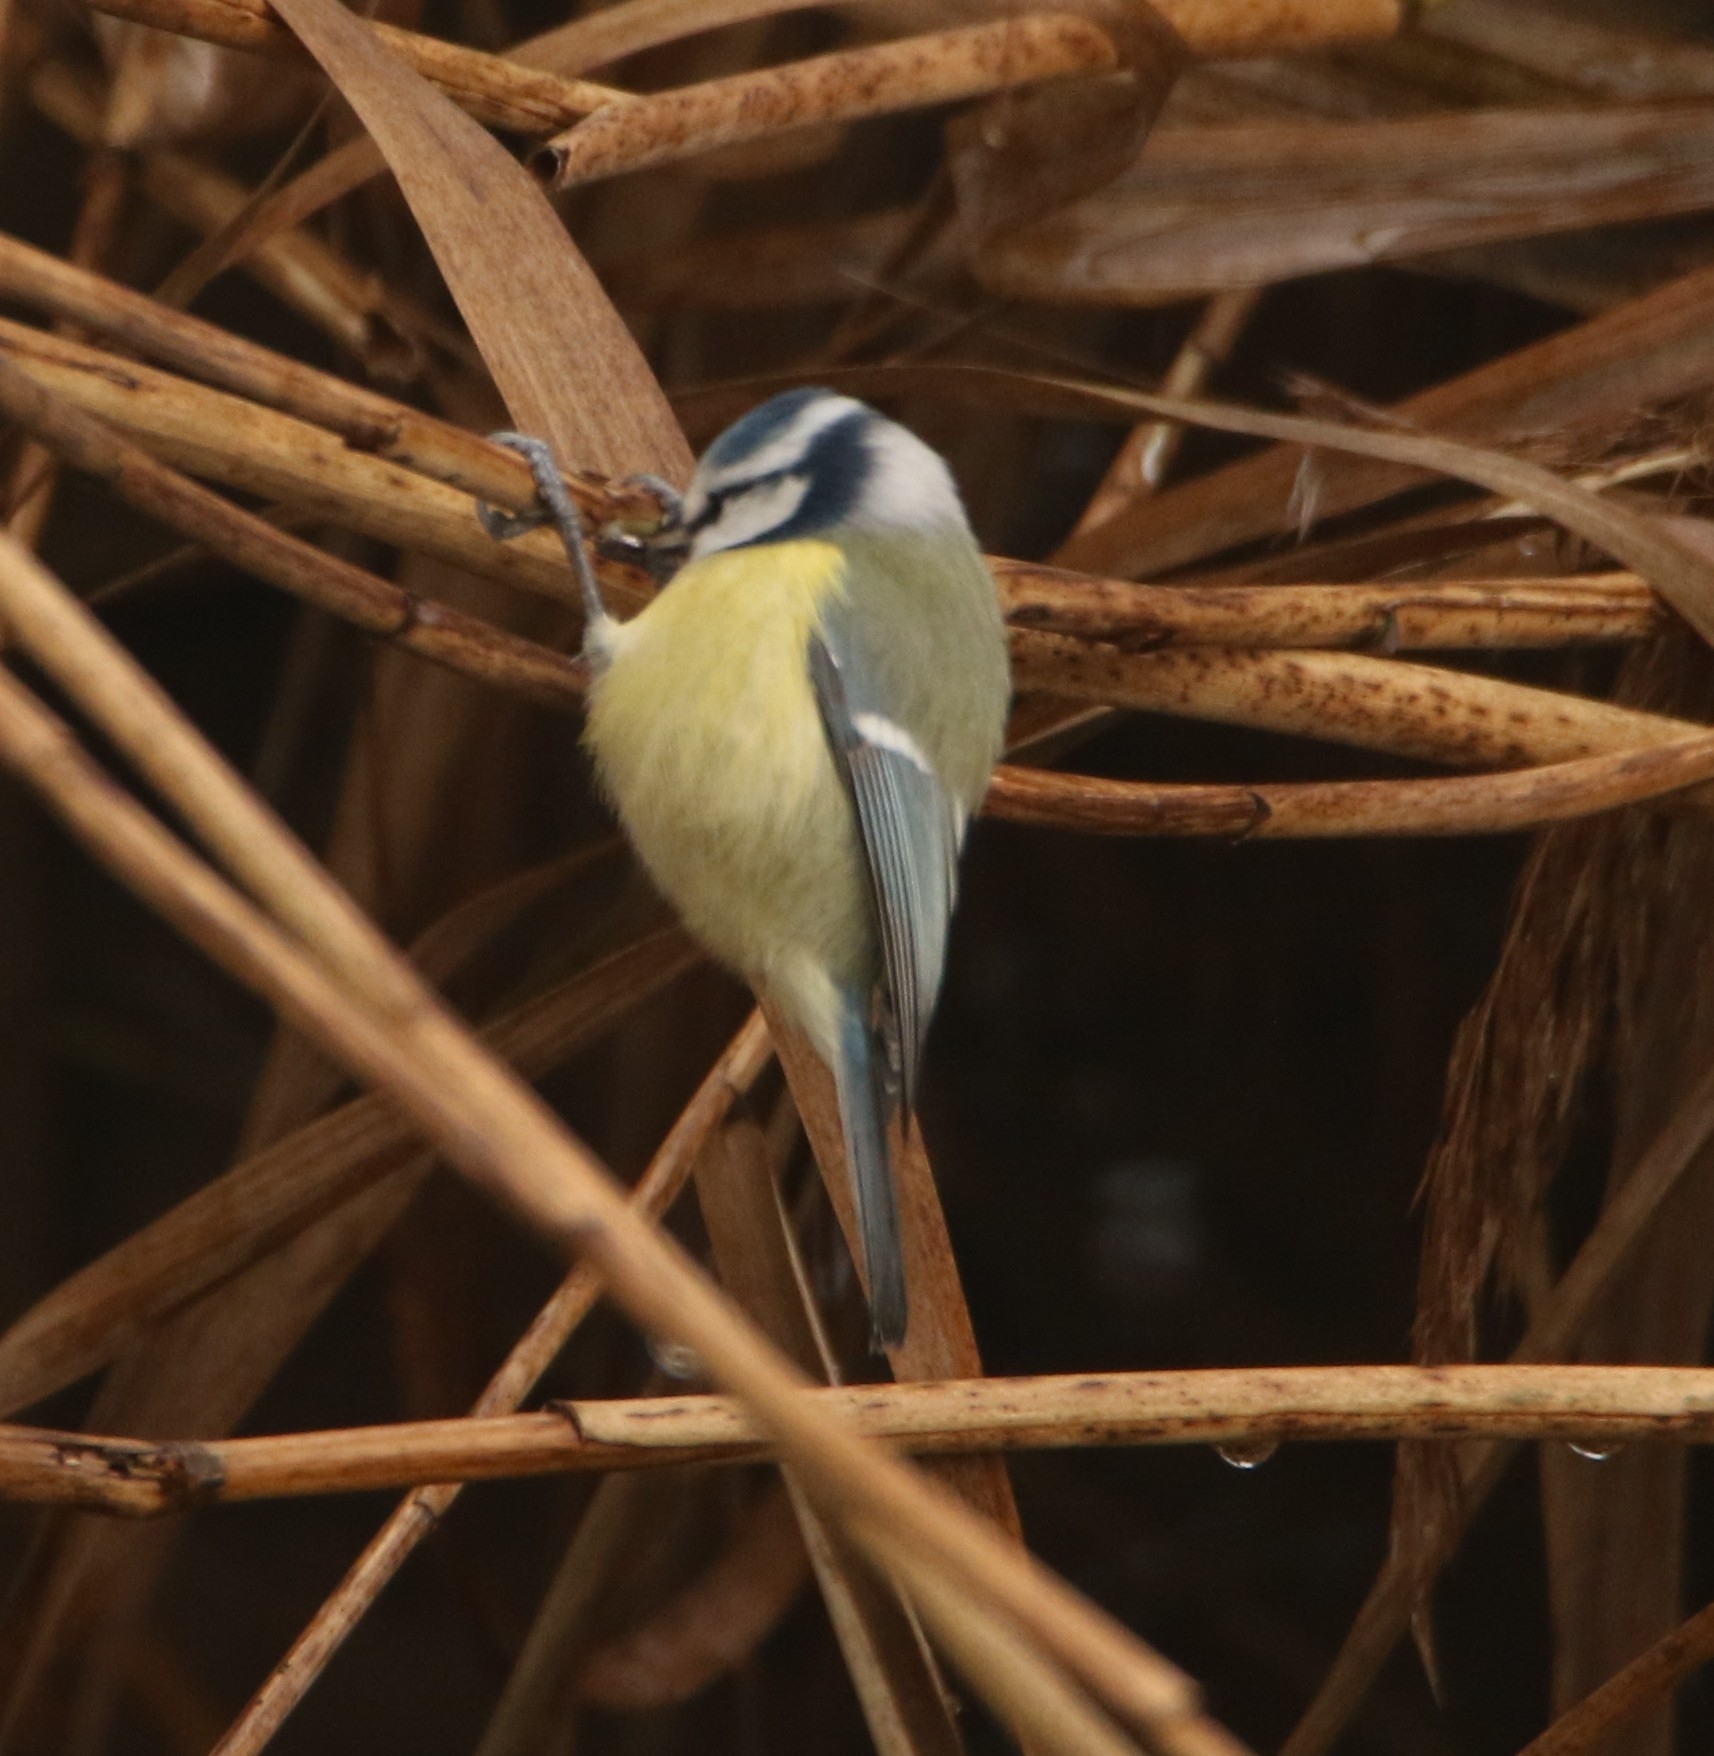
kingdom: Animalia
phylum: Chordata
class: Aves
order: Passeriformes
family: Paridae
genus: Cyanistes
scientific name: Cyanistes caeruleus
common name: Eurasian blue tit
